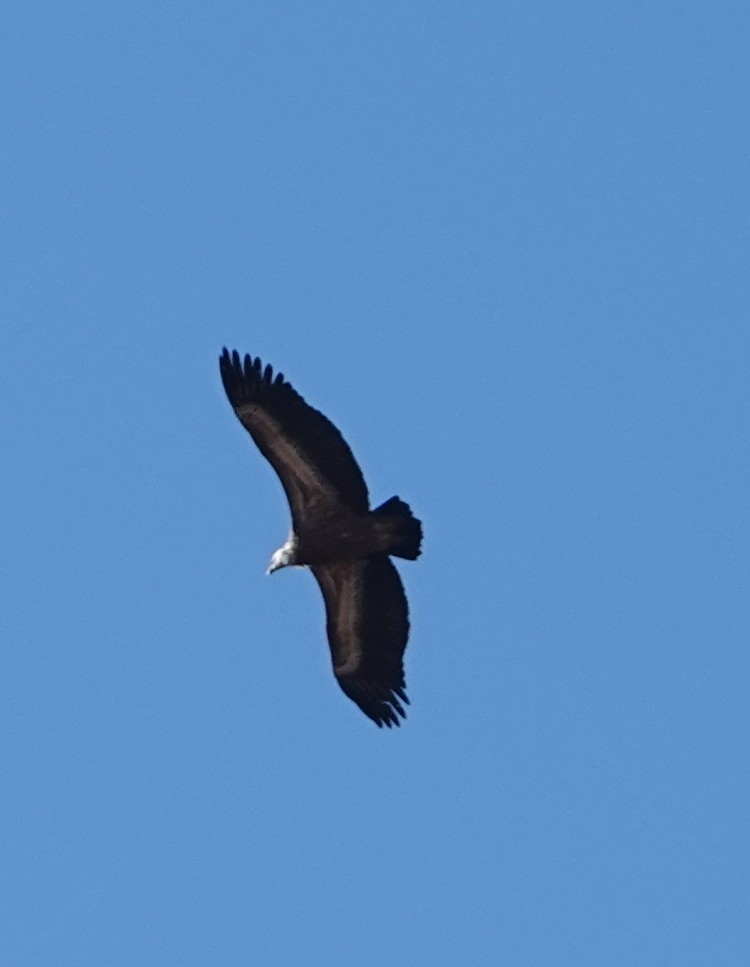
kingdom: Animalia
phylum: Chordata
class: Aves
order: Accipitriformes
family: Accipitridae
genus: Gyps
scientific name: Gyps fulvus
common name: Griffon vulture
